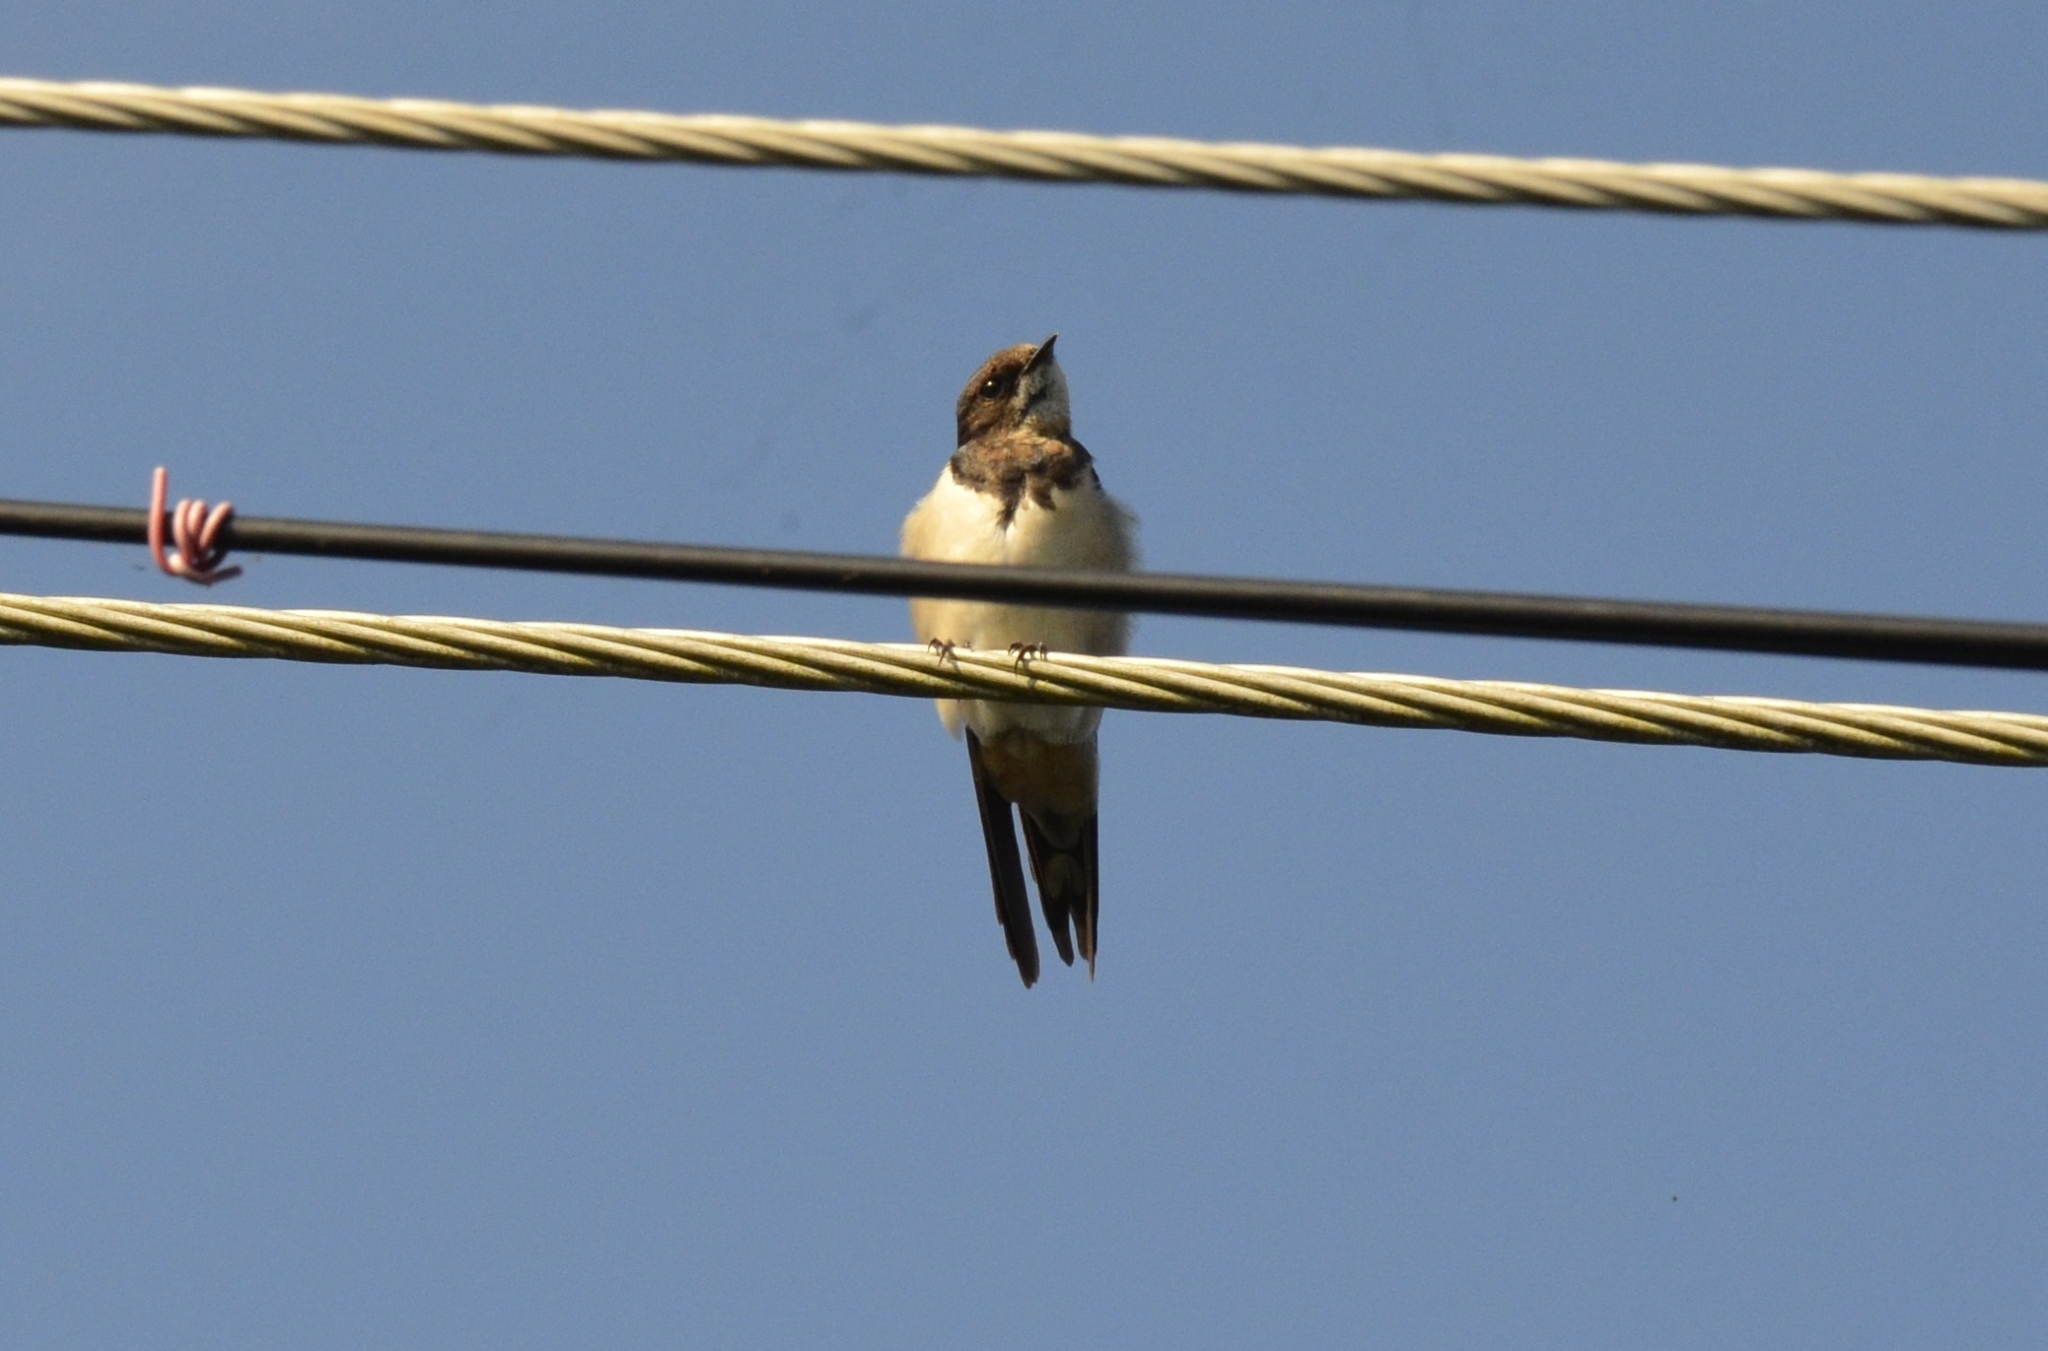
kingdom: Animalia
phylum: Chordata
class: Aves
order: Passeriformes
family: Hirundinidae
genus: Hirundo
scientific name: Hirundo rustica
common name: Barn swallow
